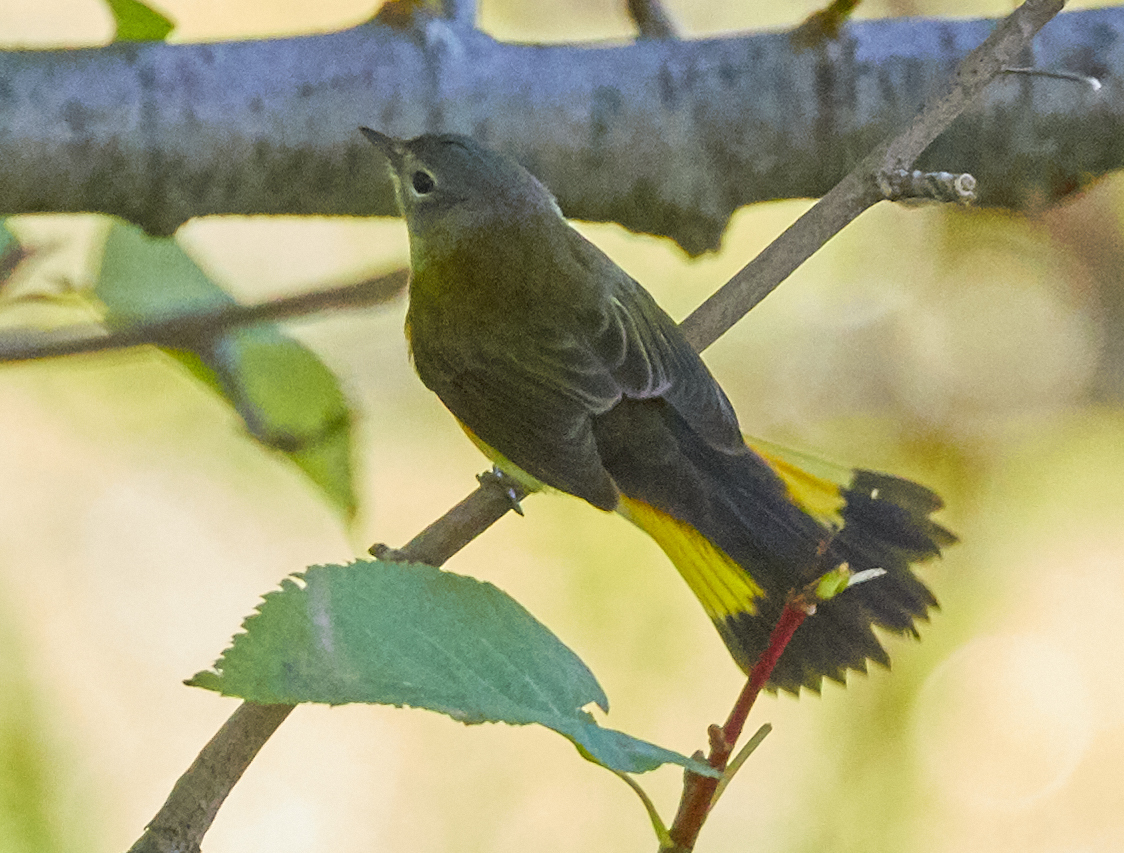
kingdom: Animalia
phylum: Chordata
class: Aves
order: Passeriformes
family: Parulidae
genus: Setophaga
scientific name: Setophaga ruticilla
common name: American redstart
